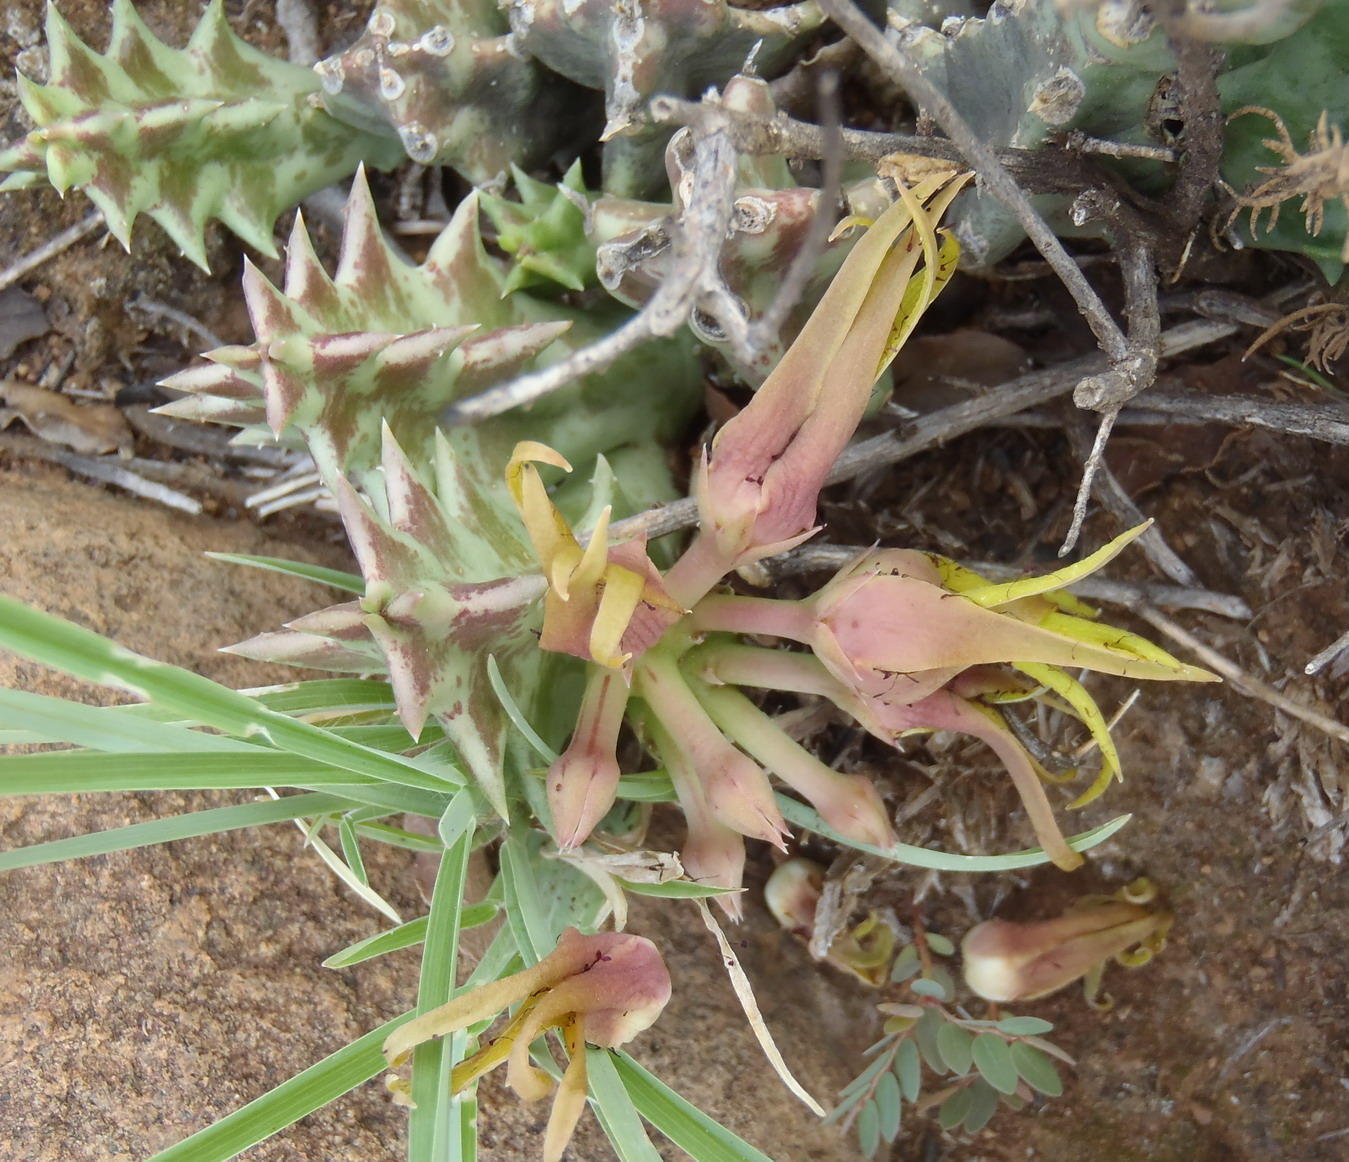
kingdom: Plantae
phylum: Tracheophyta
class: Magnoliopsida
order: Gentianales
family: Apocynaceae
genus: Ceropegia
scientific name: Ceropegia lutea
